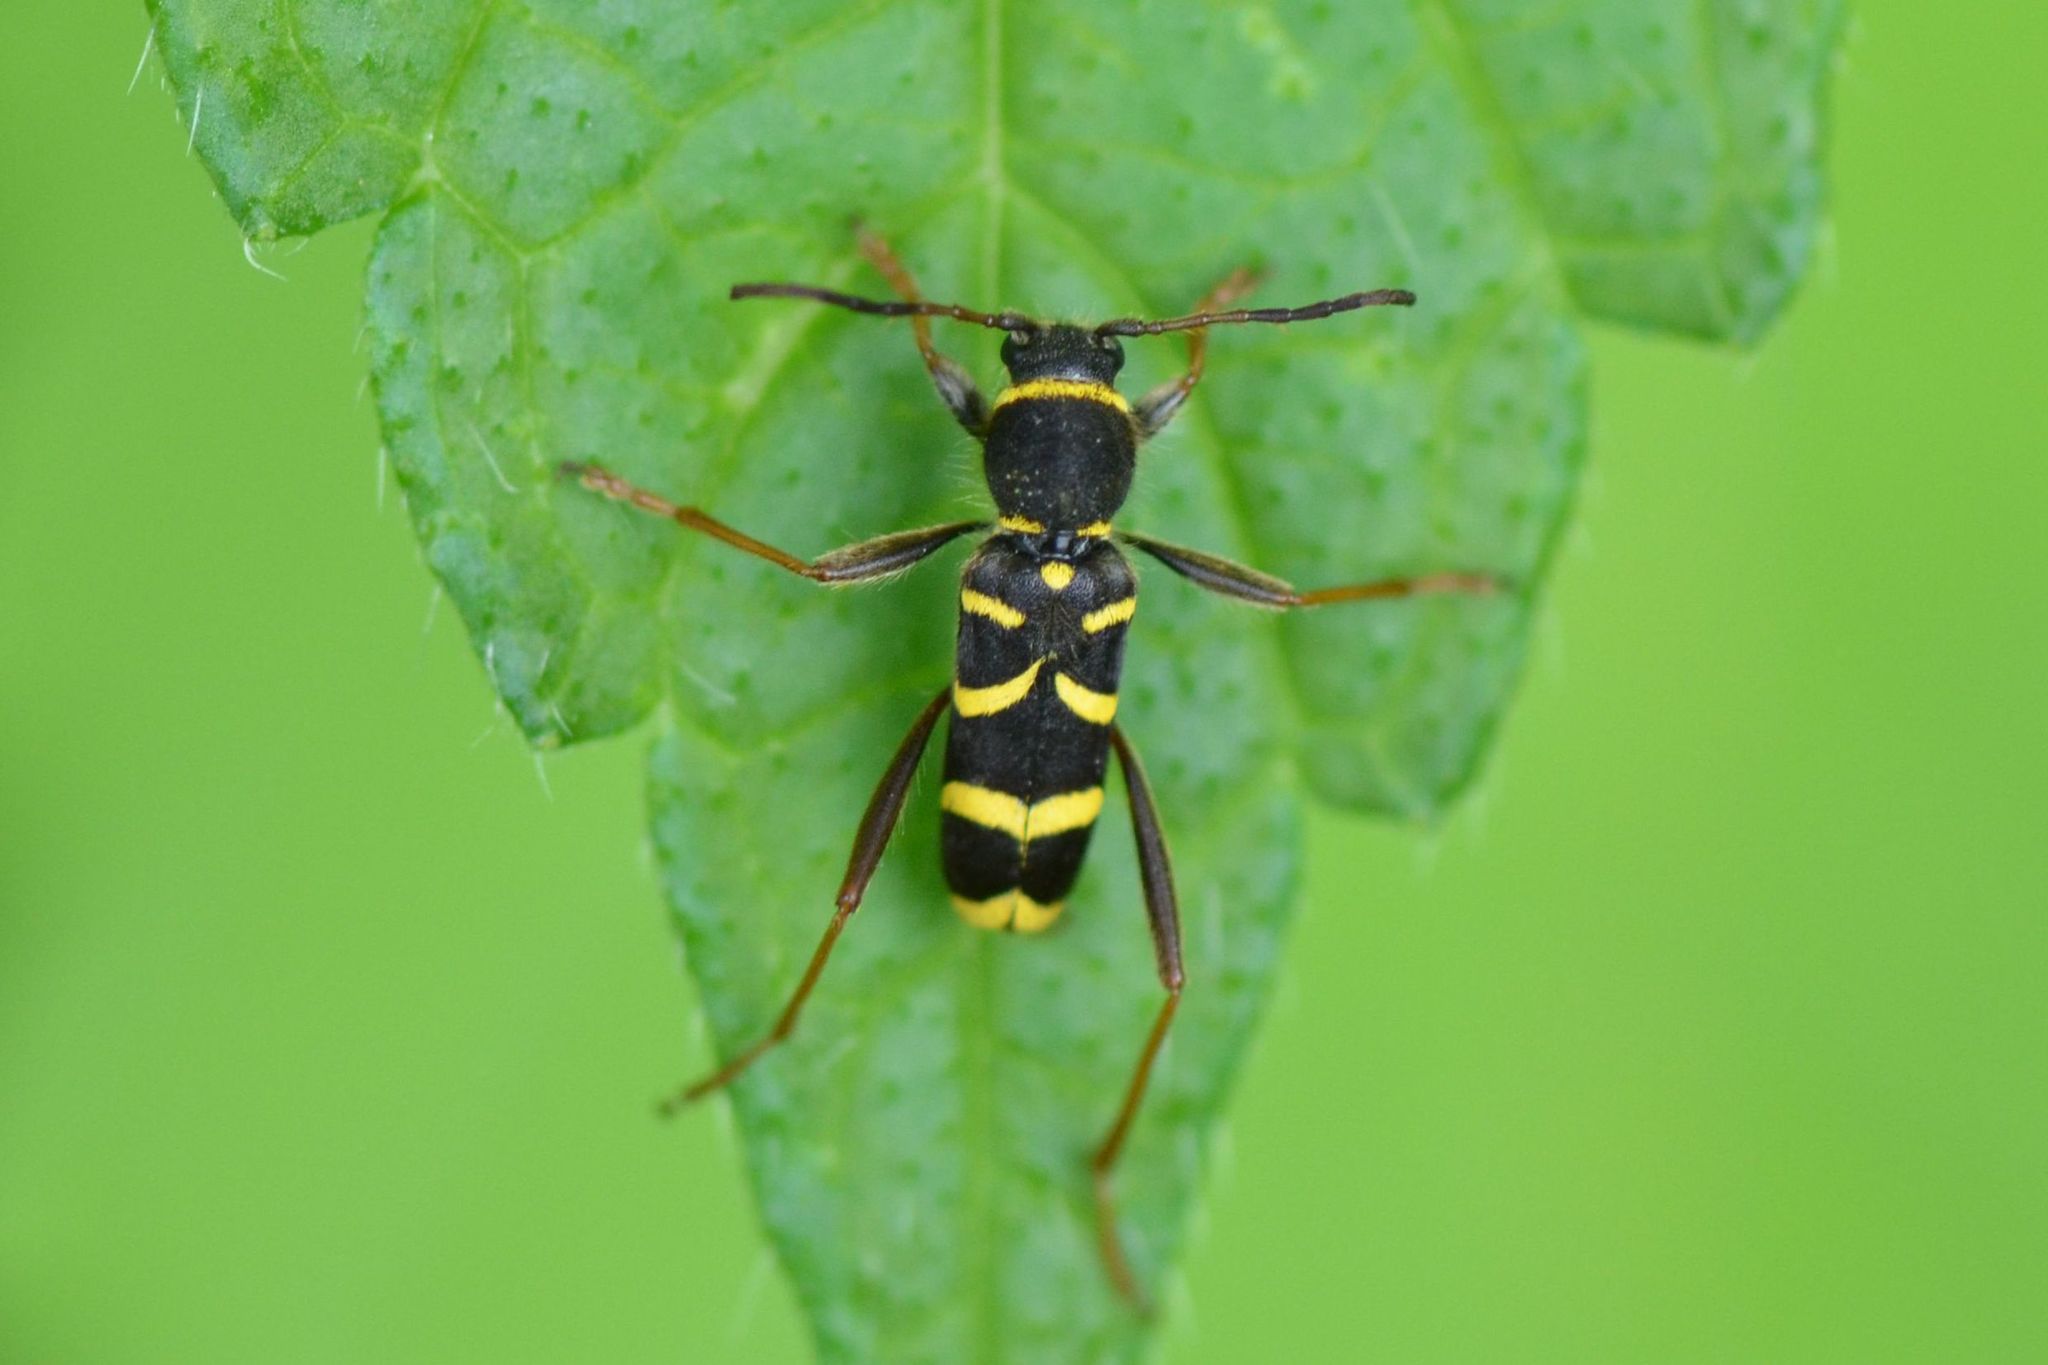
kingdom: Animalia
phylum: Arthropoda
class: Insecta
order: Coleoptera
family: Cerambycidae
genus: Clytus
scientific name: Clytus arietis
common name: Wasp beetle
